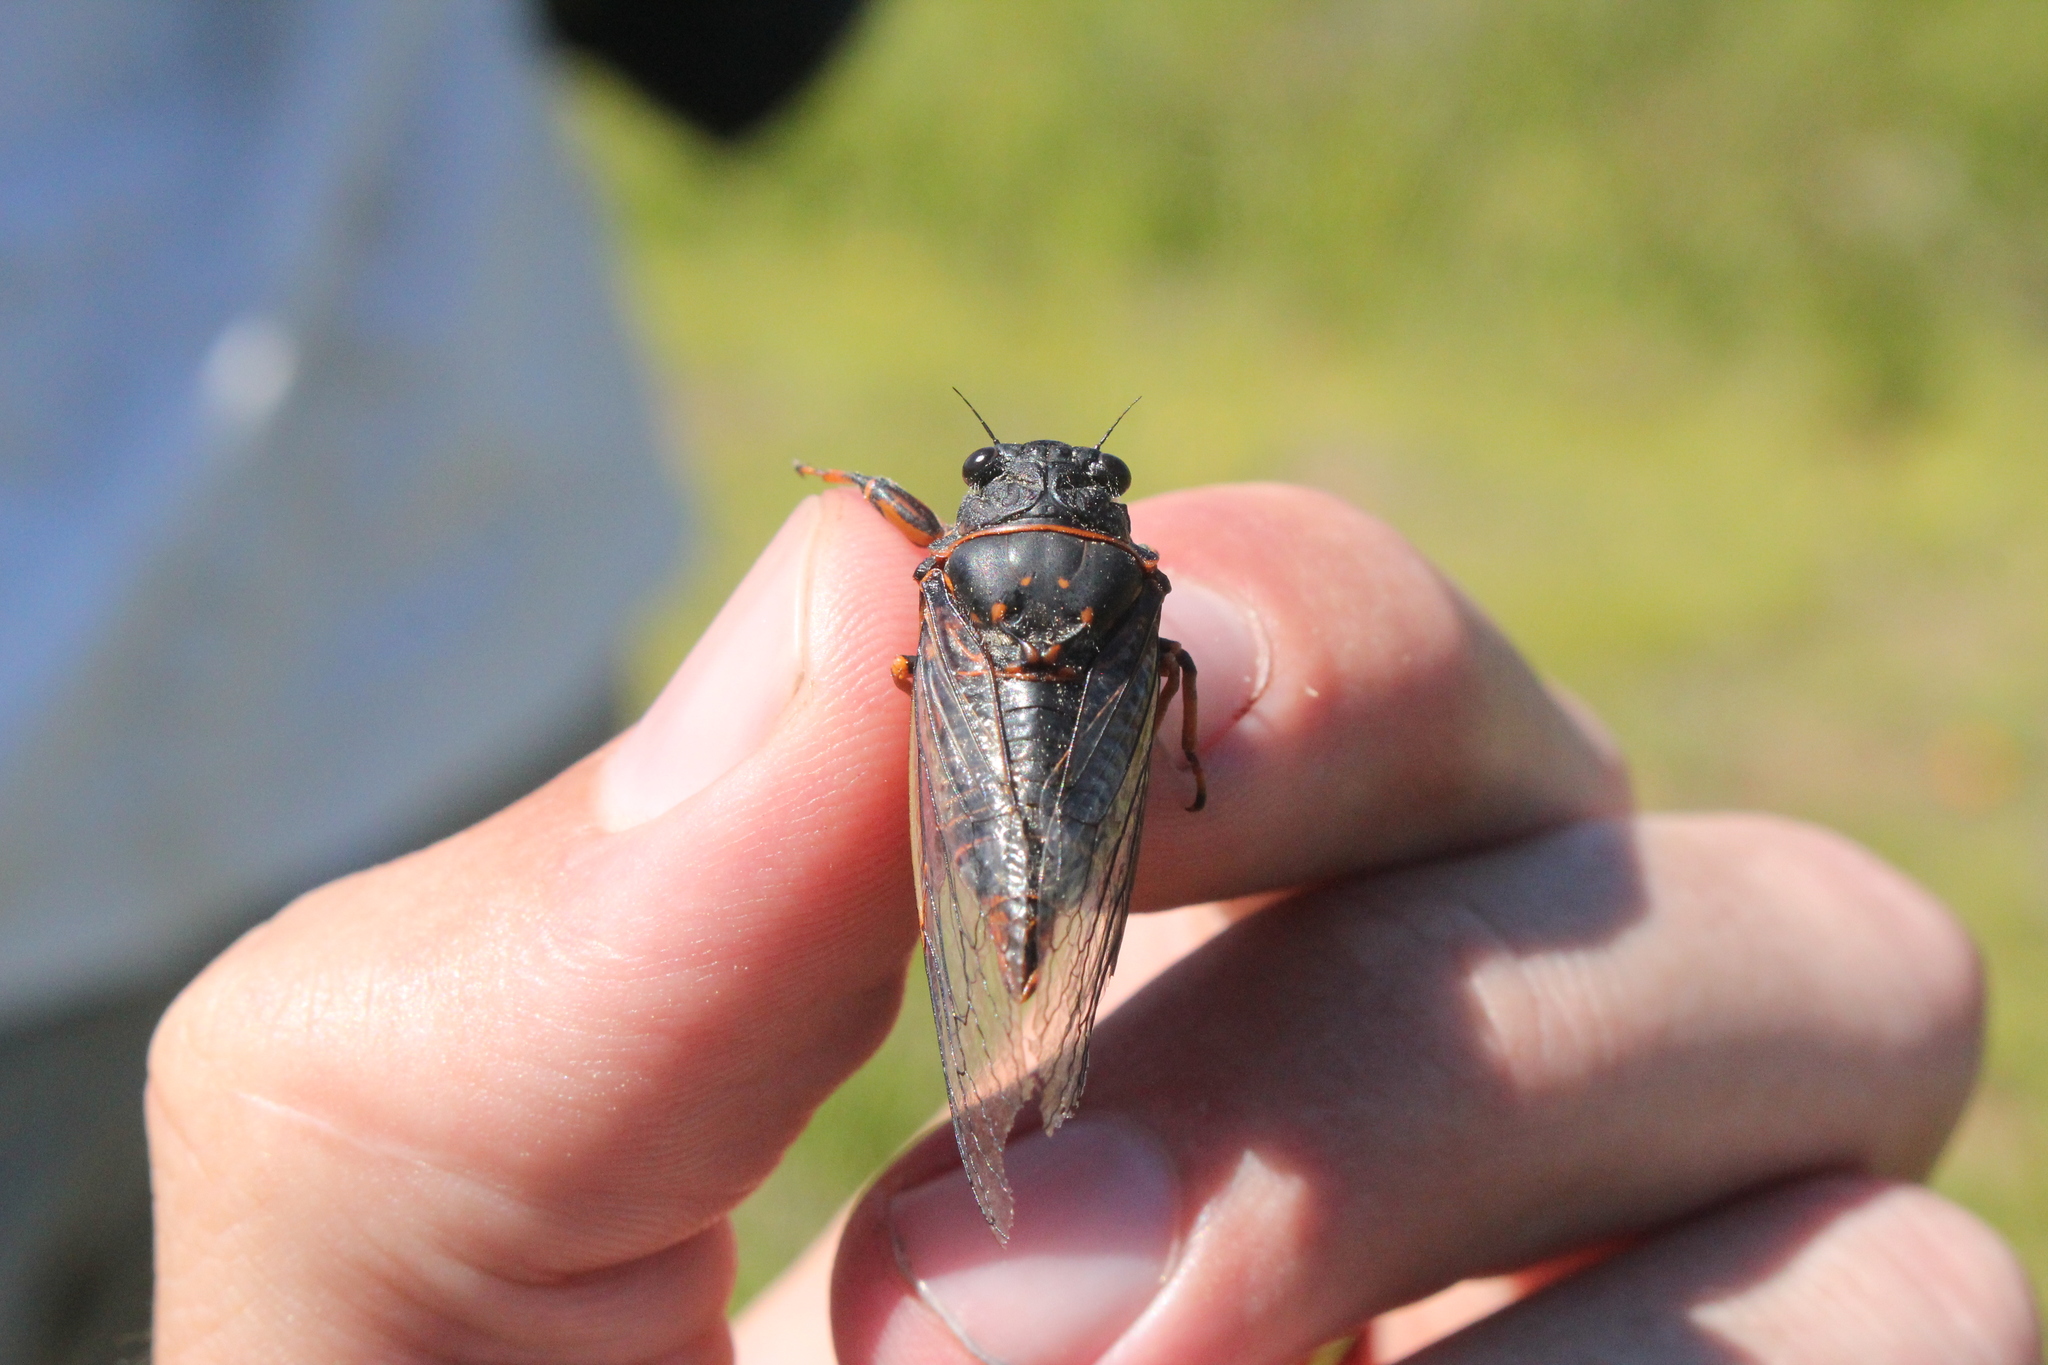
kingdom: Animalia
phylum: Arthropoda
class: Insecta
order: Hemiptera
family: Cicadidae
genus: Okanagana
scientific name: Okanagana rimosa
